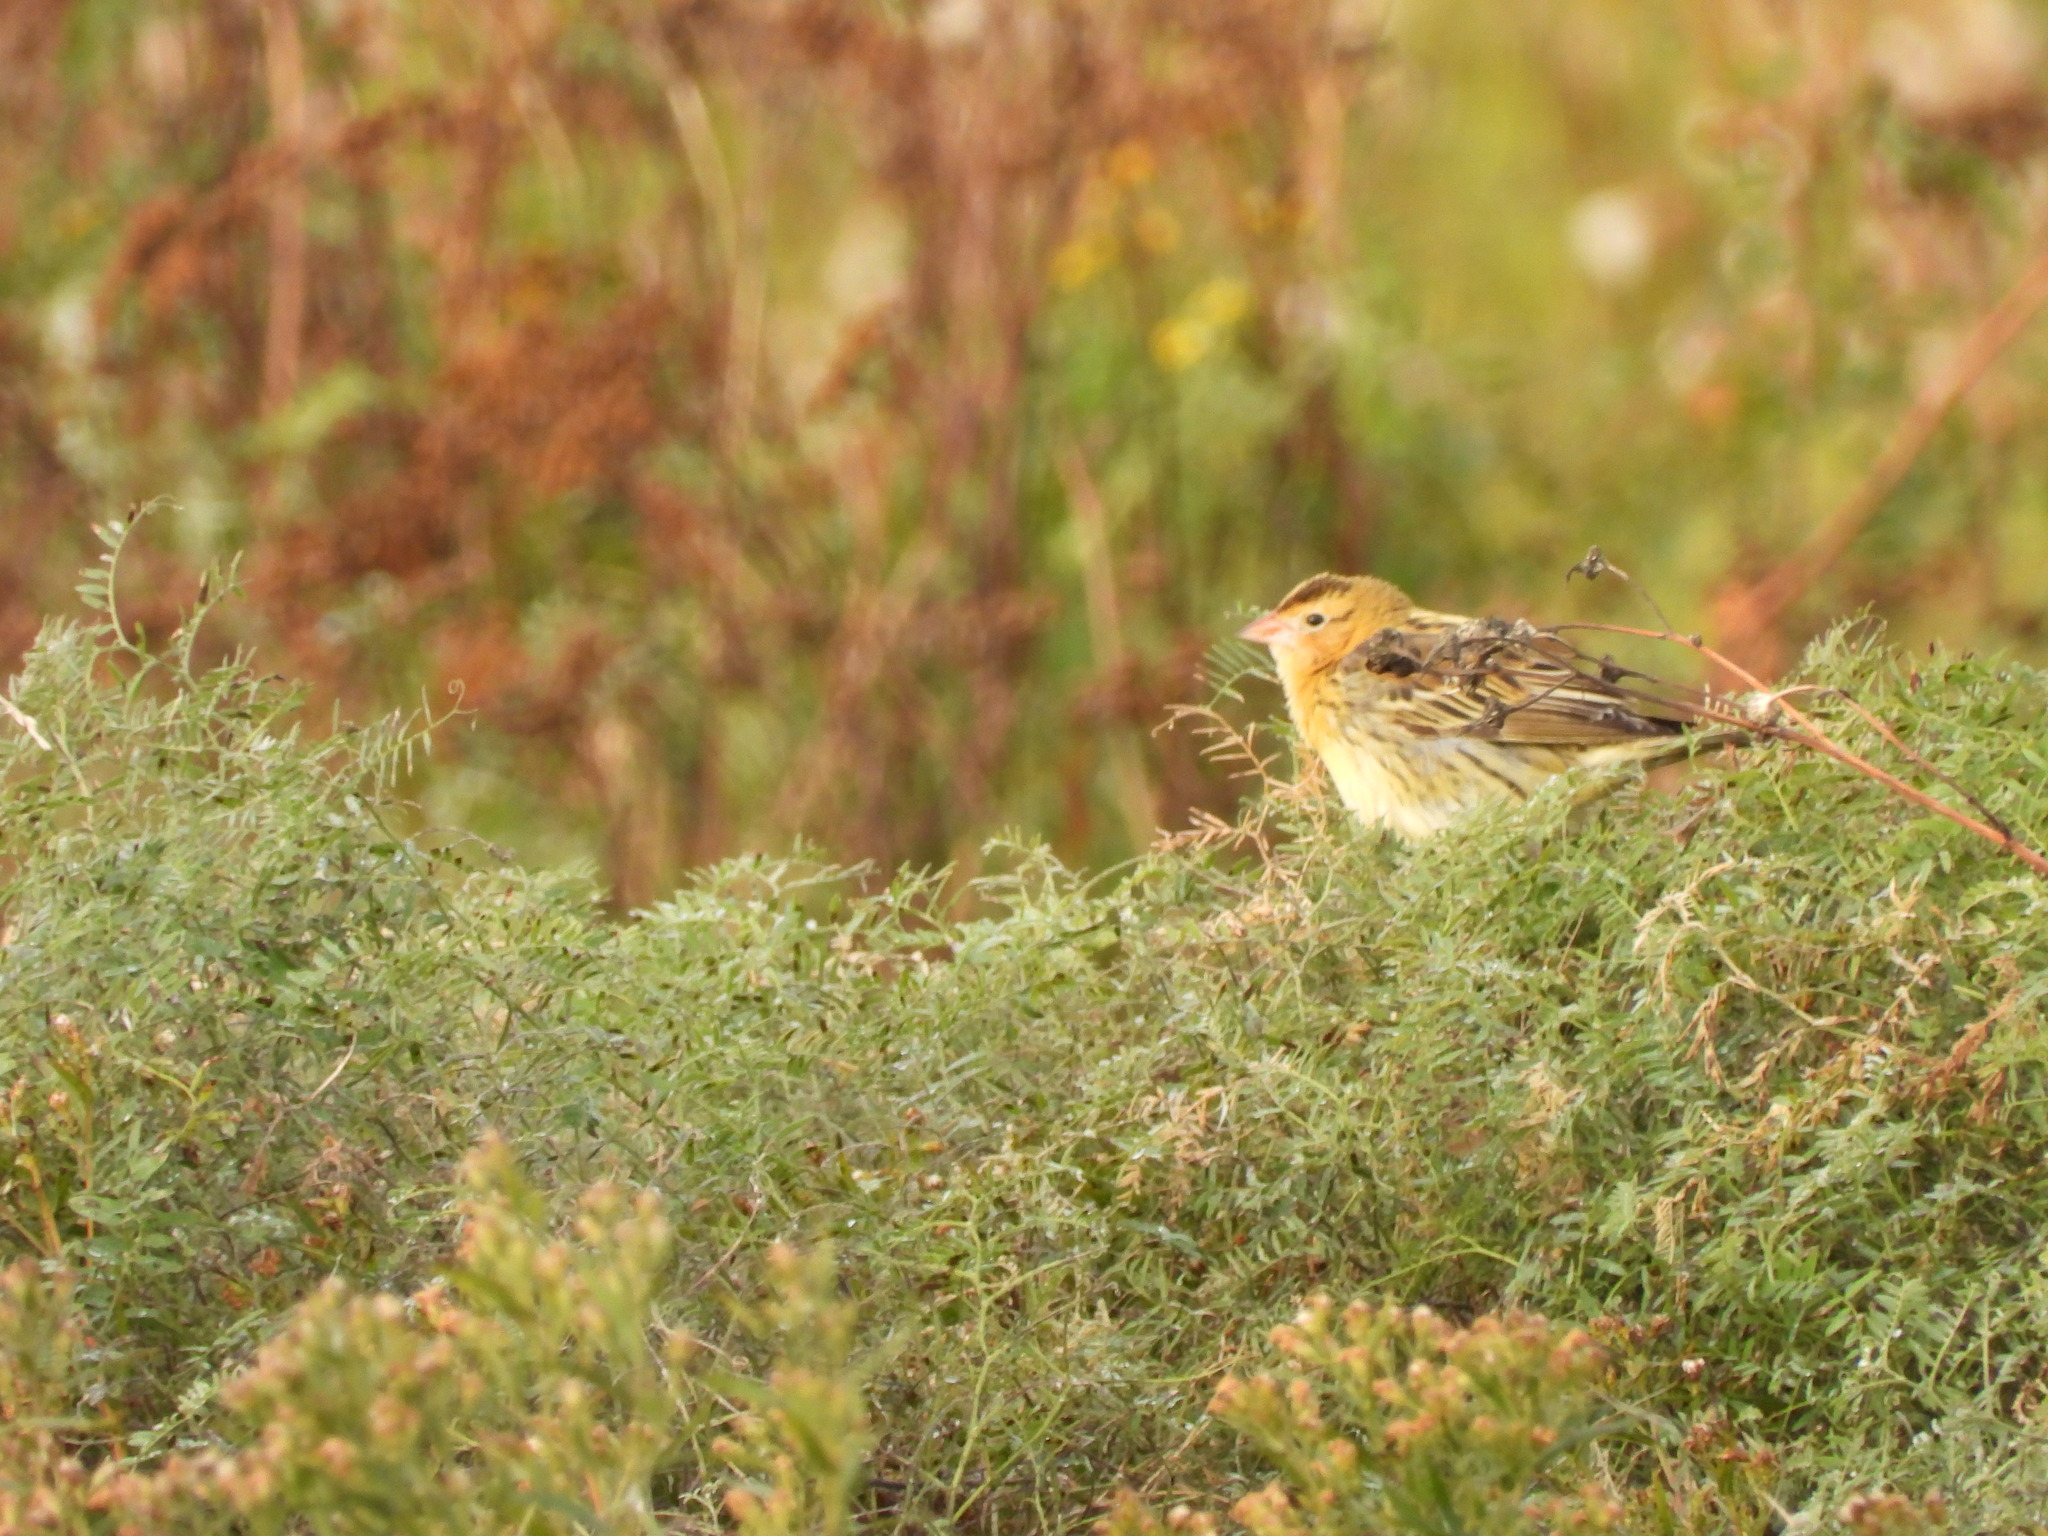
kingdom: Animalia
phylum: Chordata
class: Aves
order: Passeriformes
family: Icteridae
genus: Dolichonyx
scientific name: Dolichonyx oryzivorus
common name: Bobolink
